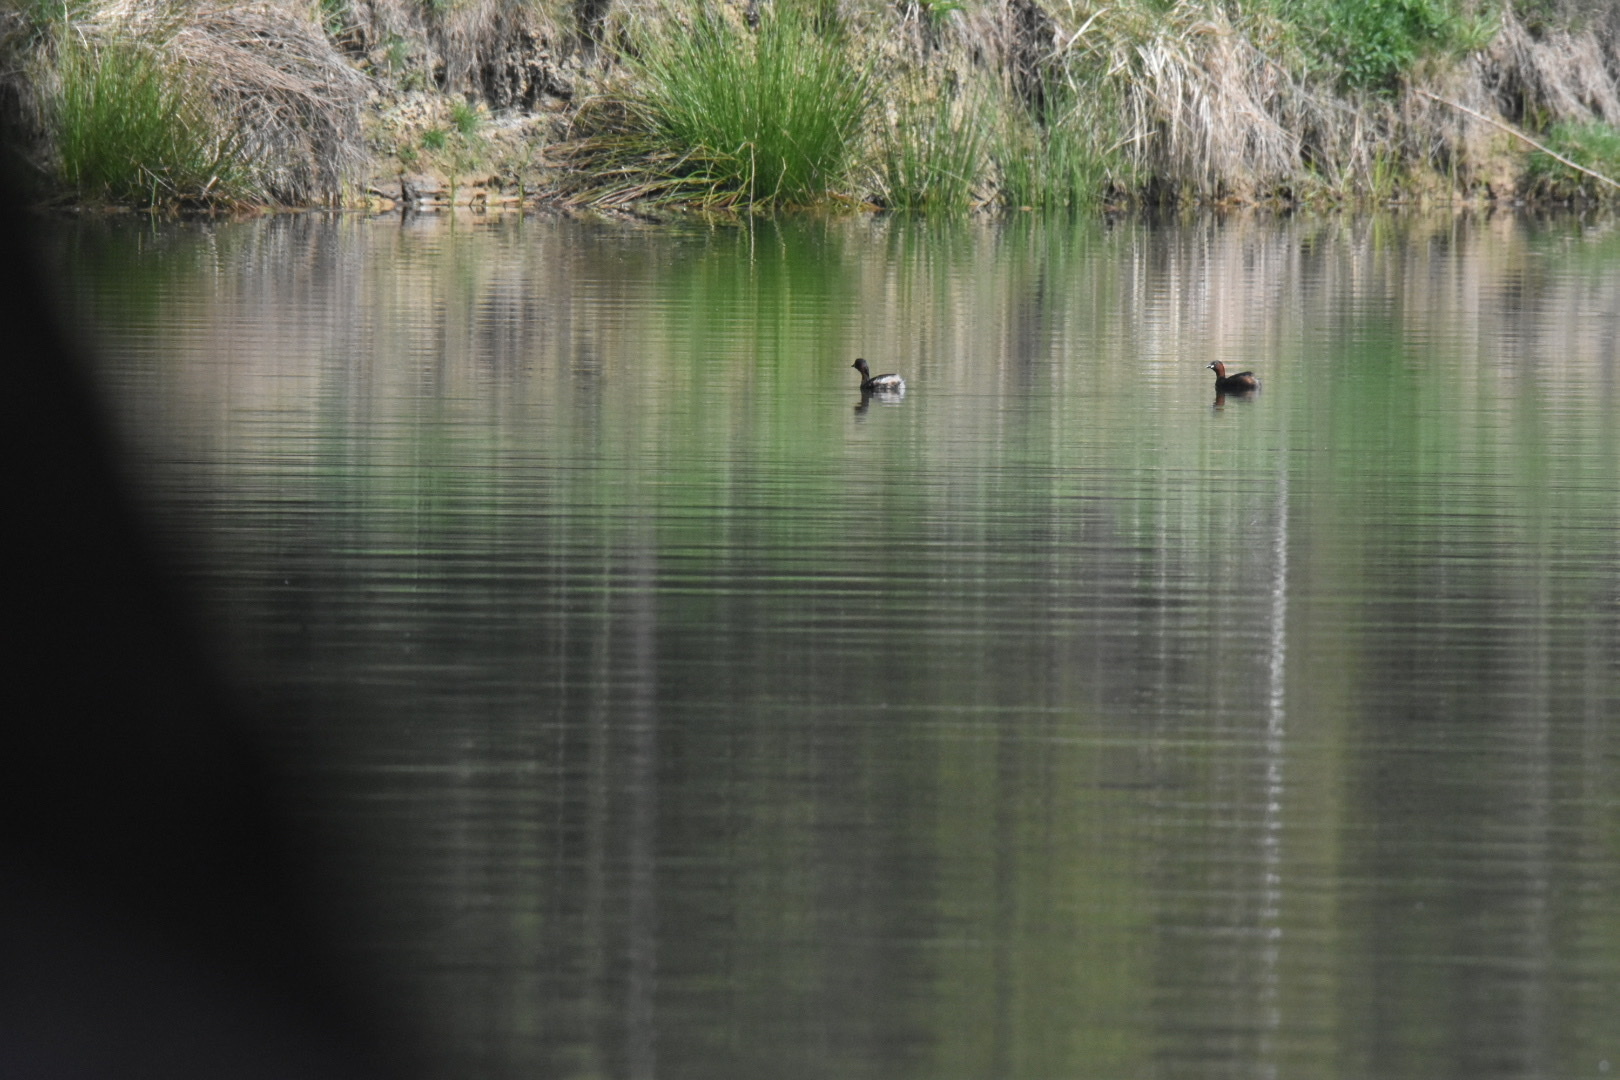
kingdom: Animalia
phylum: Chordata
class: Aves
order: Podicipediformes
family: Podicipedidae
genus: Tachybaptus
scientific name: Tachybaptus ruficollis
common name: Little grebe
